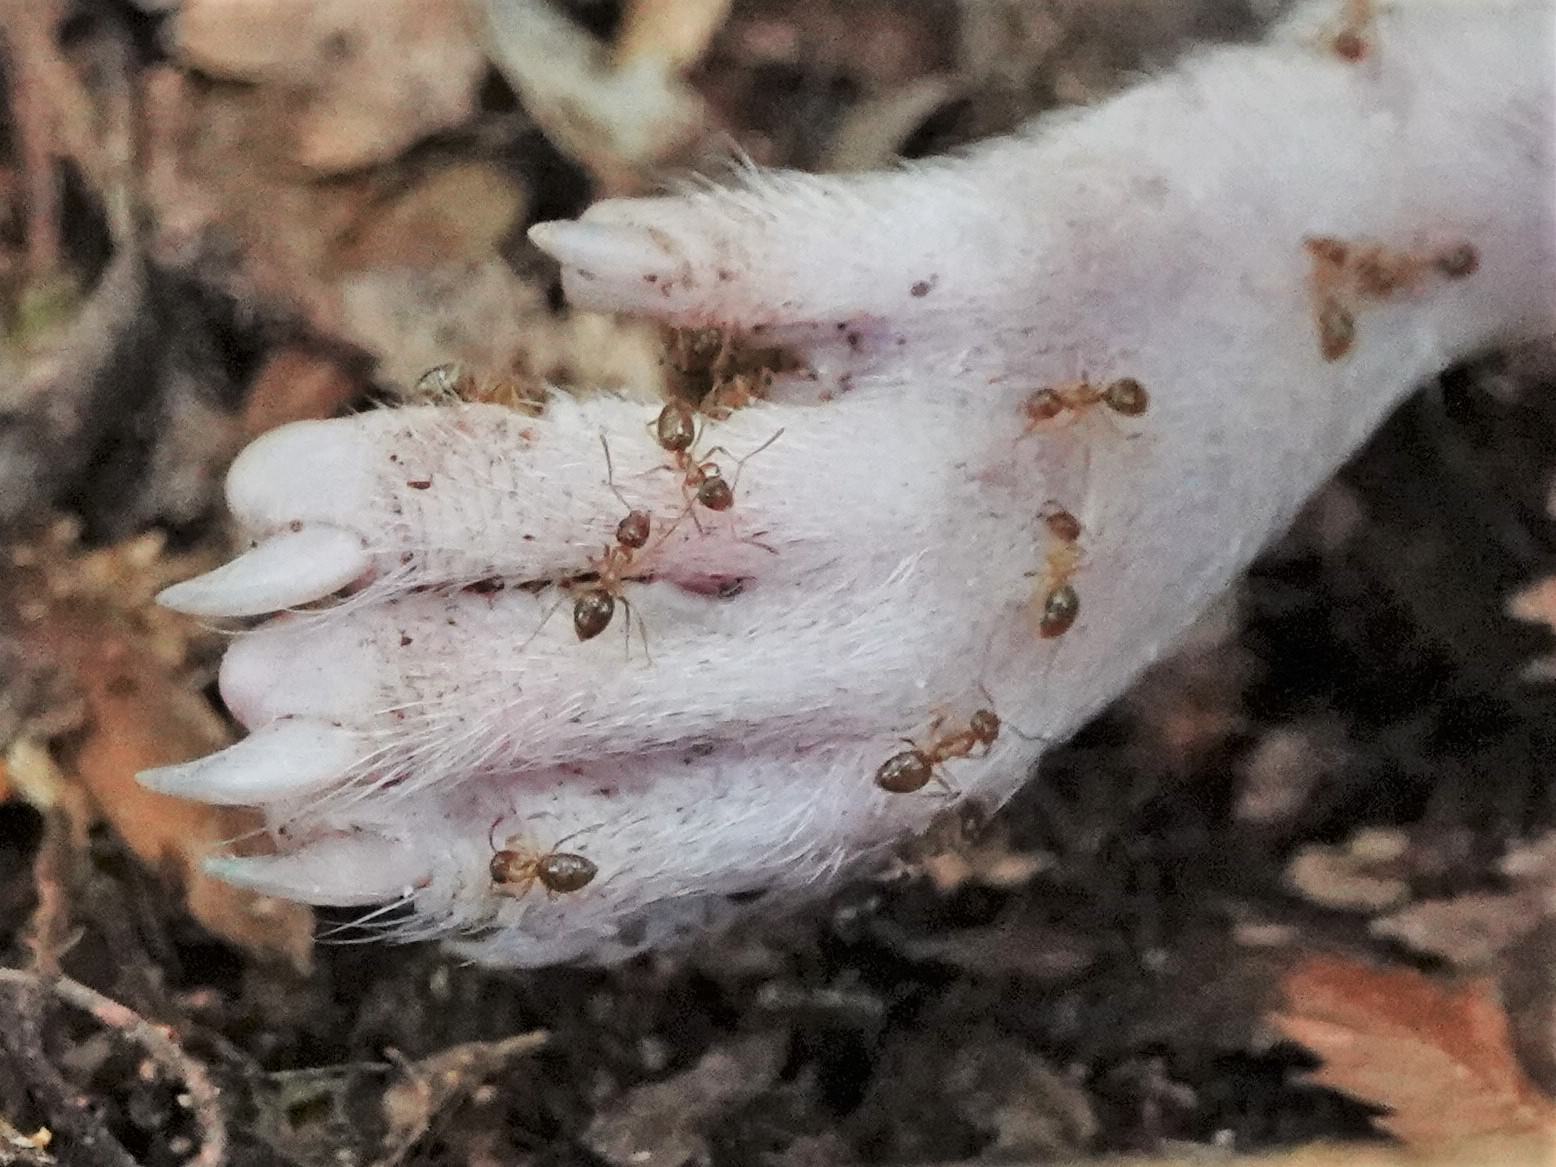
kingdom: Animalia
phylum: Arthropoda
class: Insecta
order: Hymenoptera
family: Formicidae
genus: Prolasius
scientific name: Prolasius advenus
